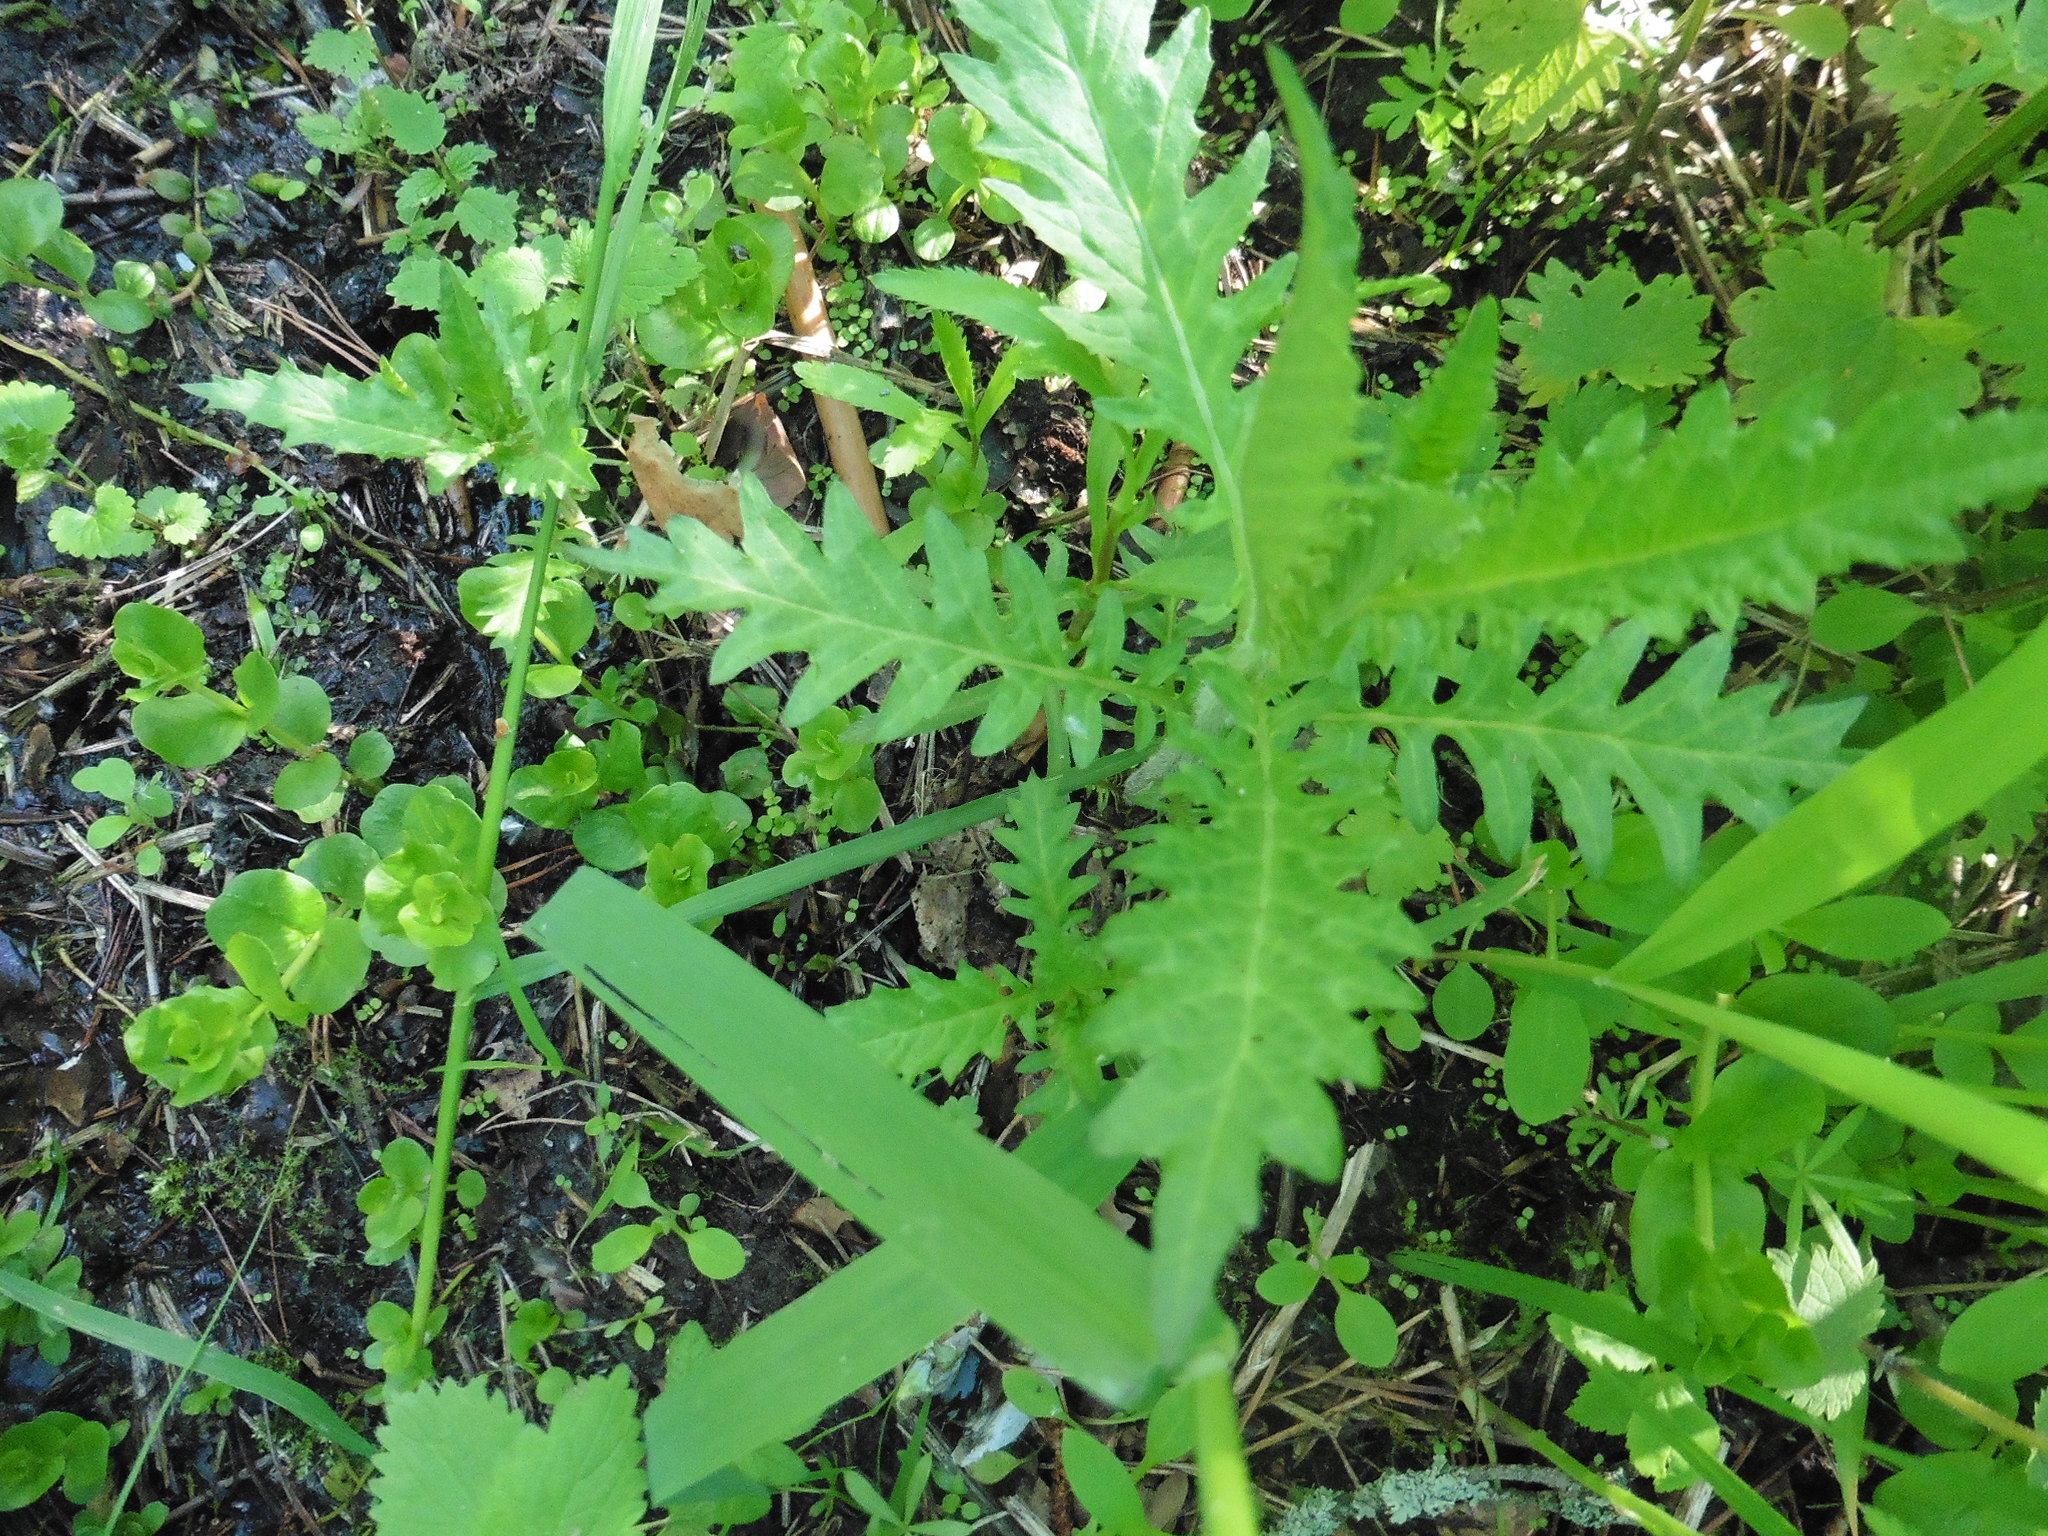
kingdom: Plantae
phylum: Tracheophyta
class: Magnoliopsida
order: Lamiales
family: Lamiaceae
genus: Lycopus
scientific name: Lycopus europaeus
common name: European bugleweed
